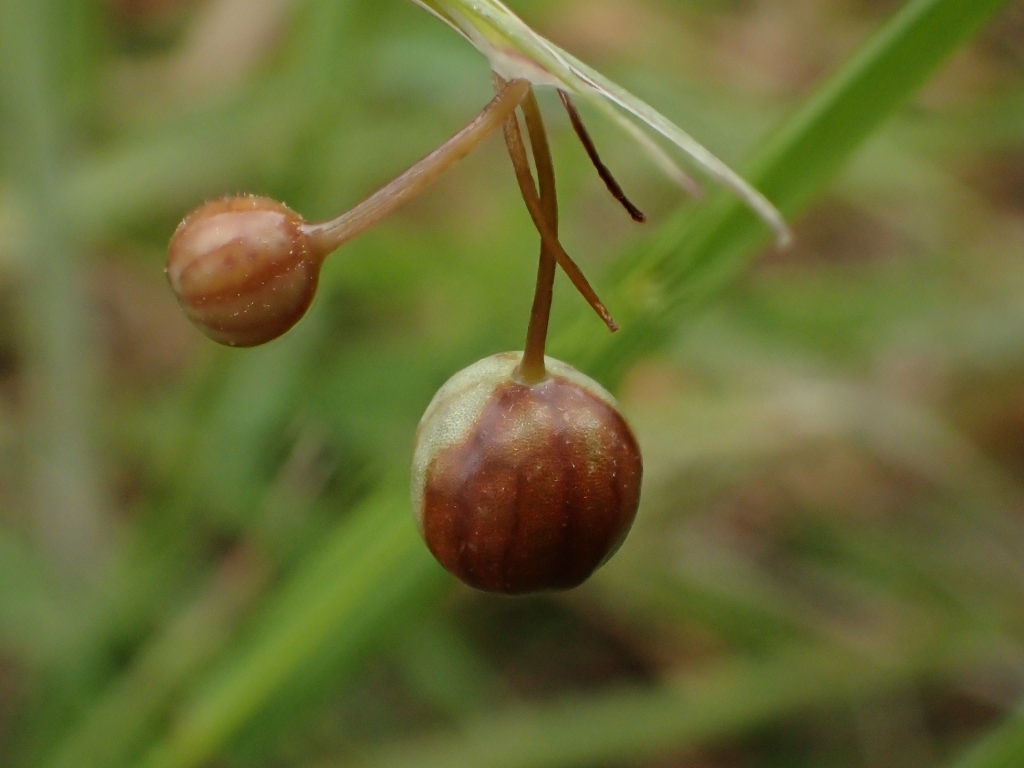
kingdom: Plantae
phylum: Tracheophyta
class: Liliopsida
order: Asparagales
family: Iridaceae
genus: Sisyrinchium
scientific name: Sisyrinchium micranthum
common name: Bermuda pigroot
